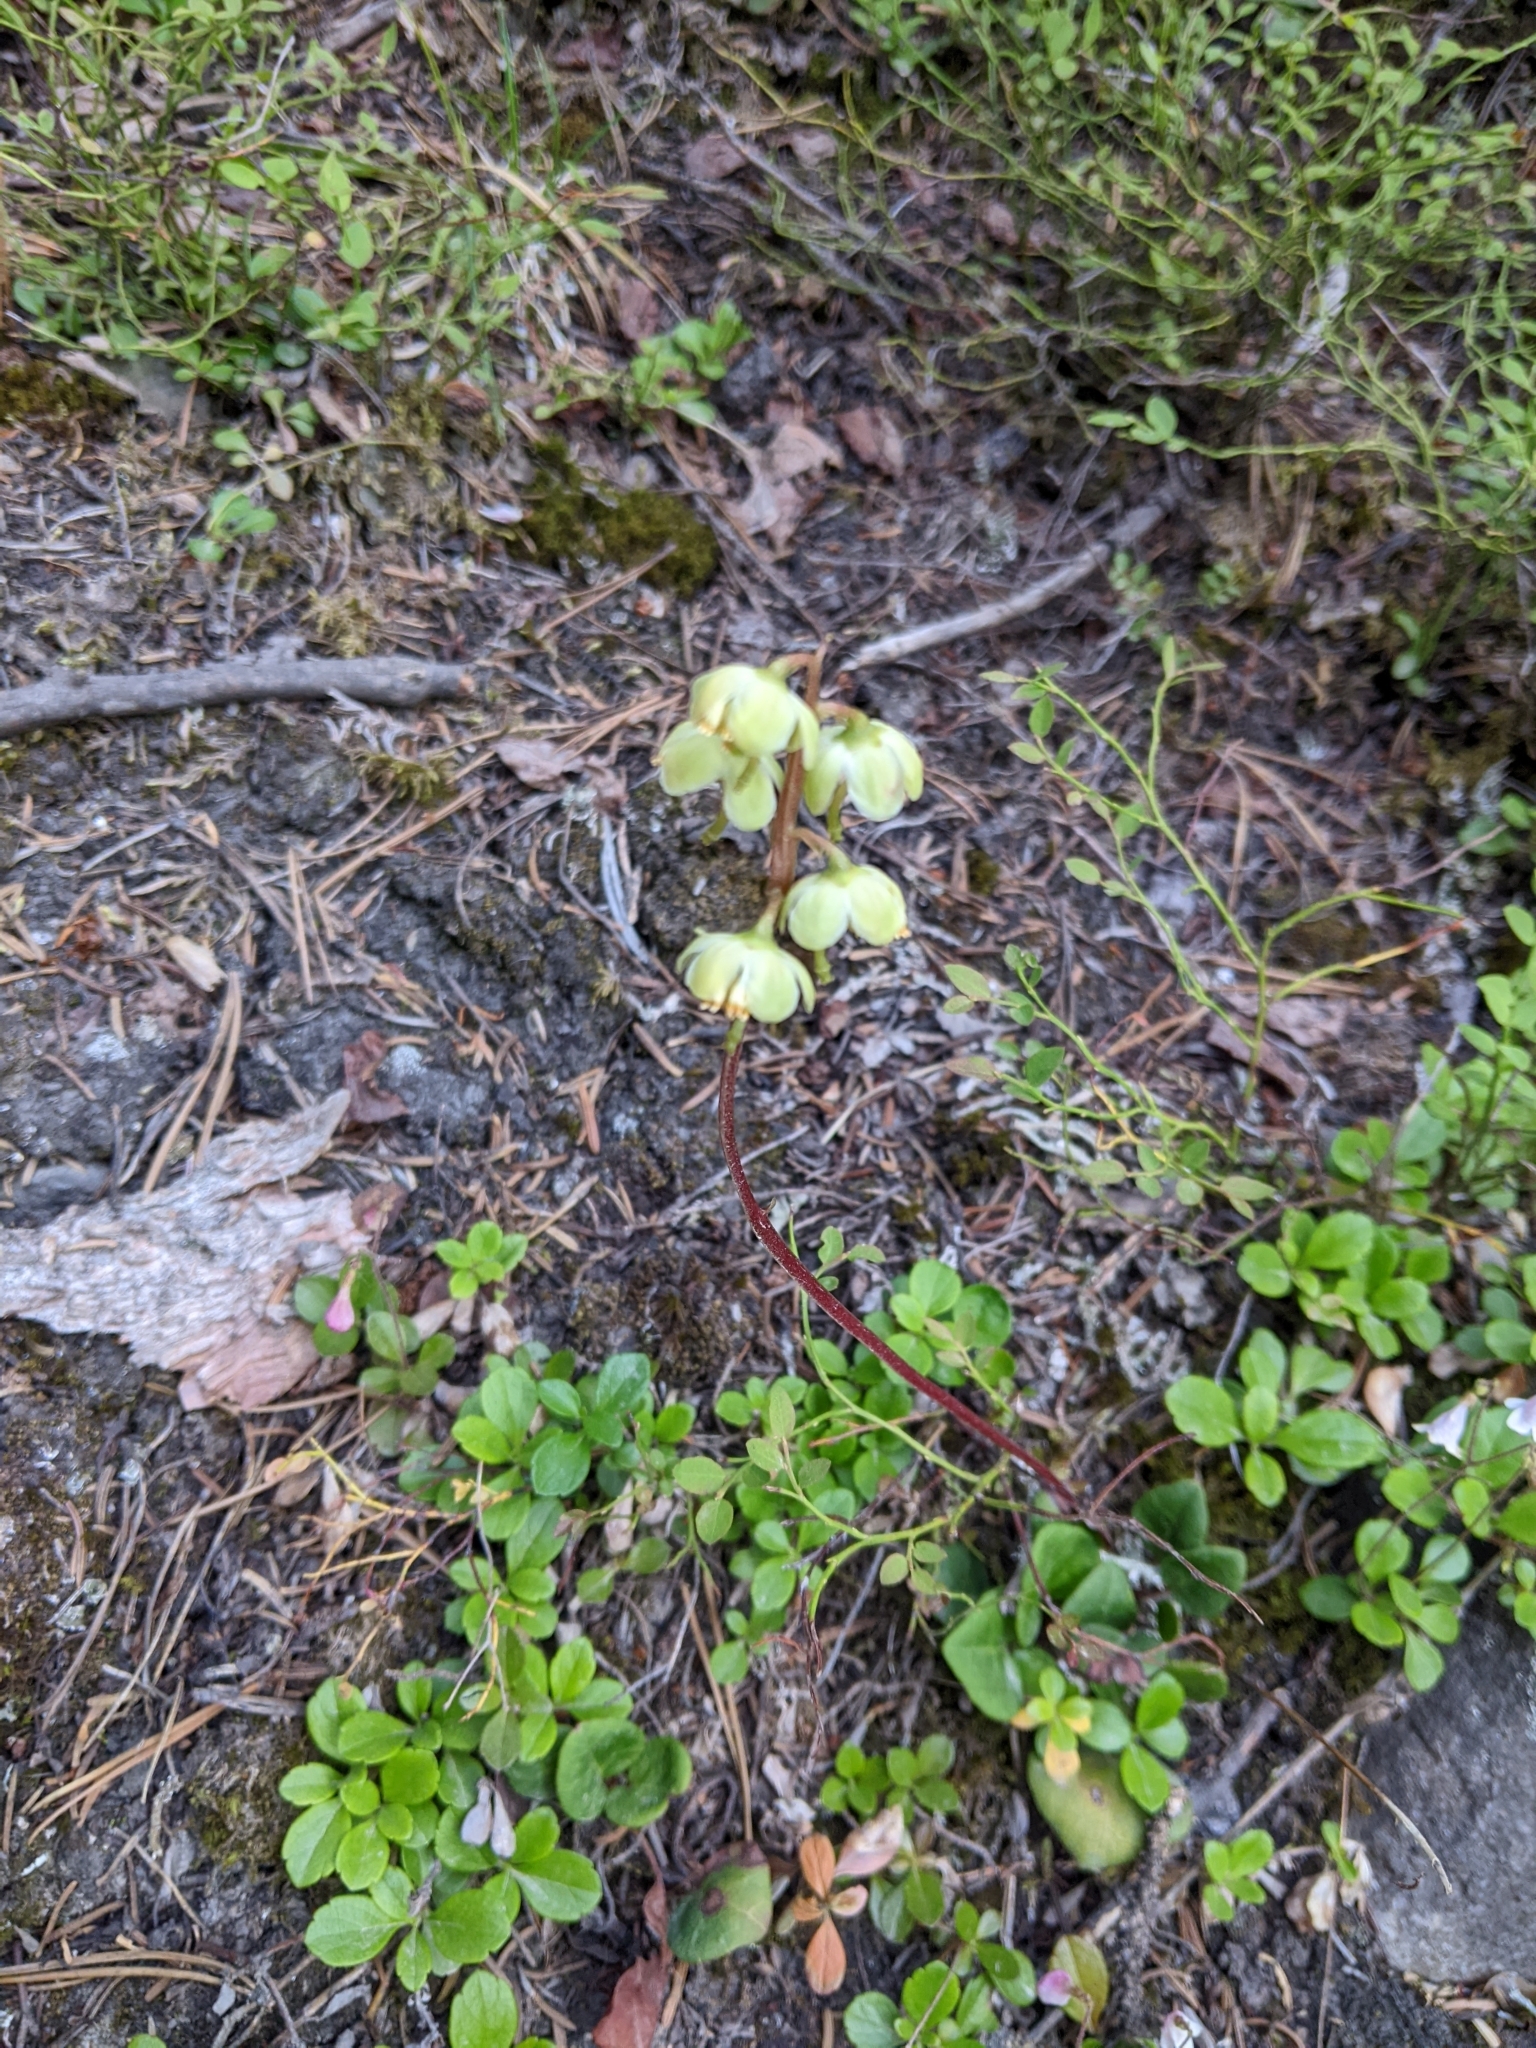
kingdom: Plantae
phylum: Tracheophyta
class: Magnoliopsida
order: Ericales
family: Ericaceae
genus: Pyrola
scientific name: Pyrola chlorantha
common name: Green wintergreen
